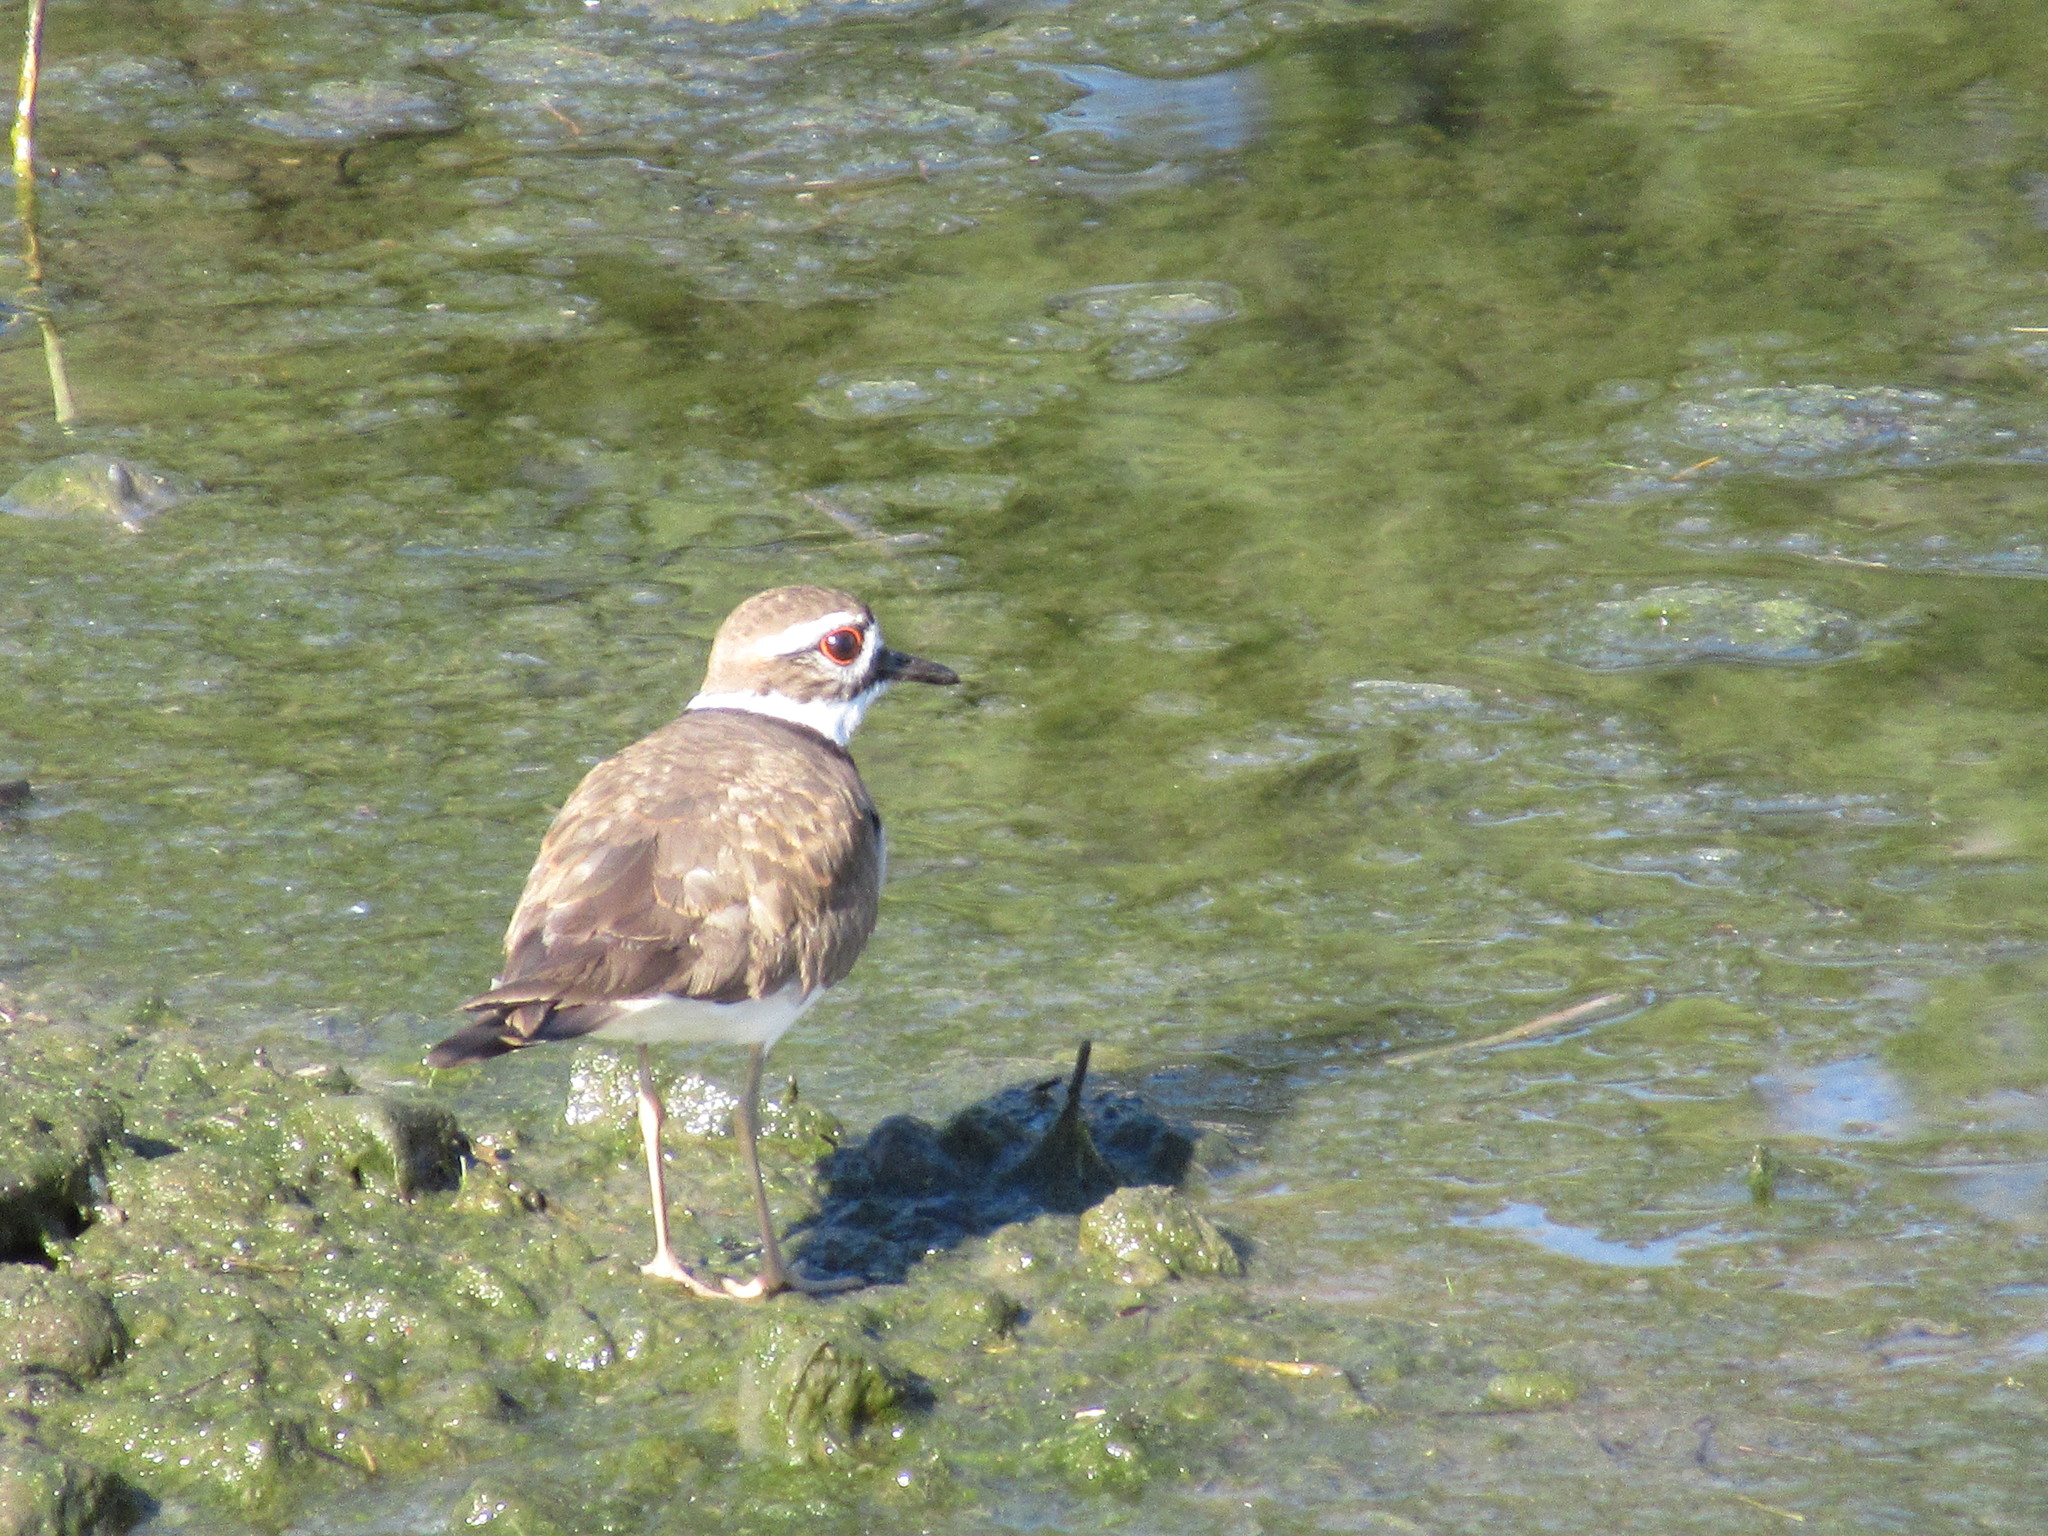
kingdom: Animalia
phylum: Chordata
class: Aves
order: Charadriiformes
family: Charadriidae
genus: Charadrius
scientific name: Charadrius vociferus
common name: Killdeer
